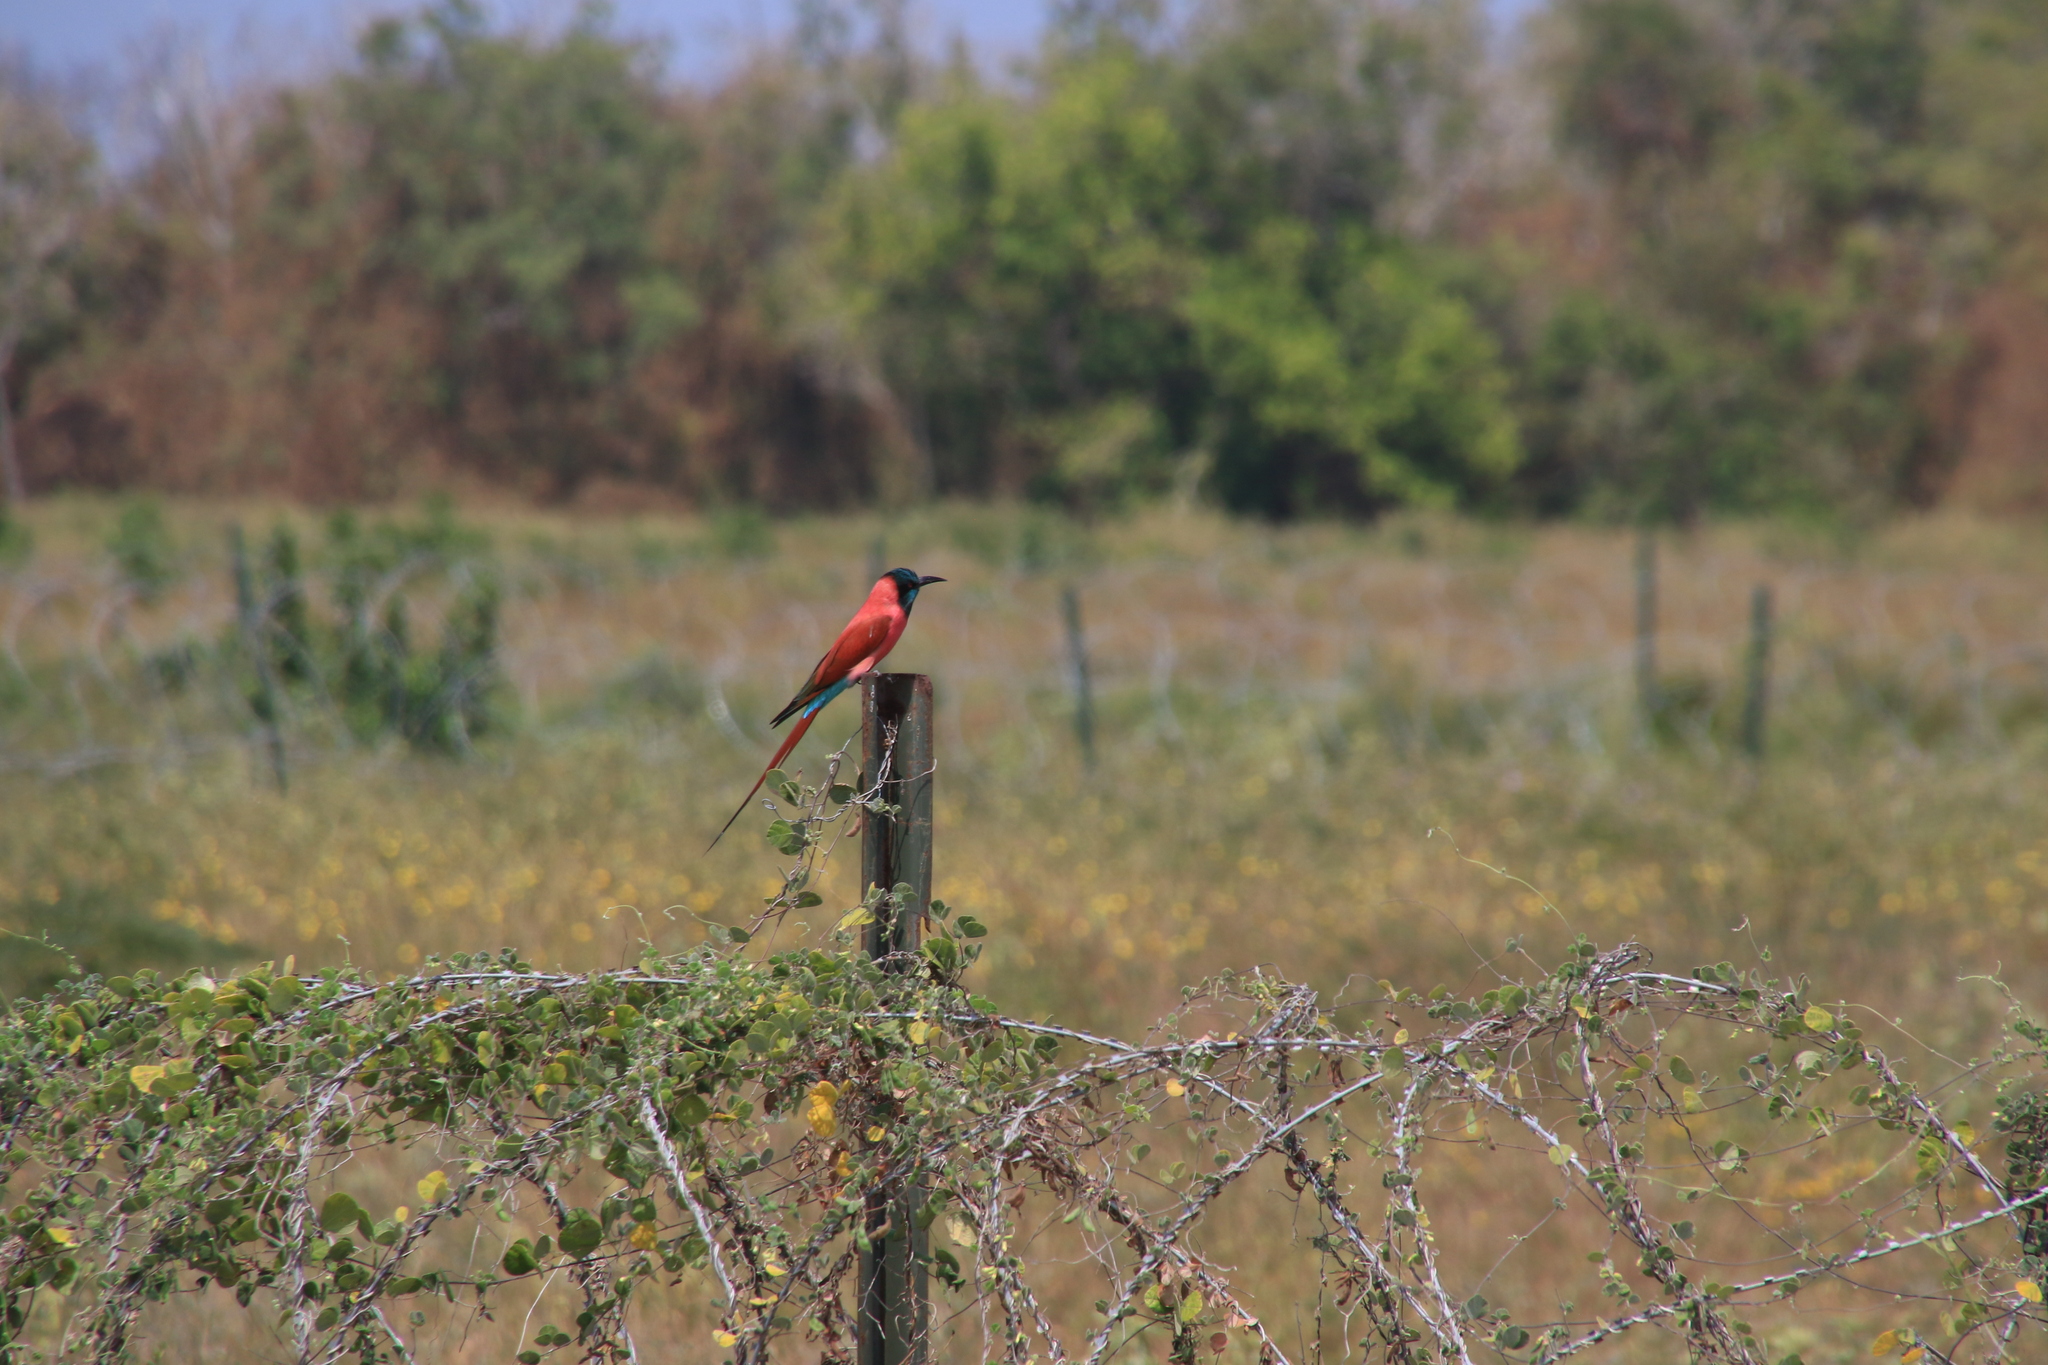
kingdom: Animalia
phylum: Chordata
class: Aves
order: Coraciiformes
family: Meropidae
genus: Merops
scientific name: Merops nubicus
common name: Northern carmine bee-eater
